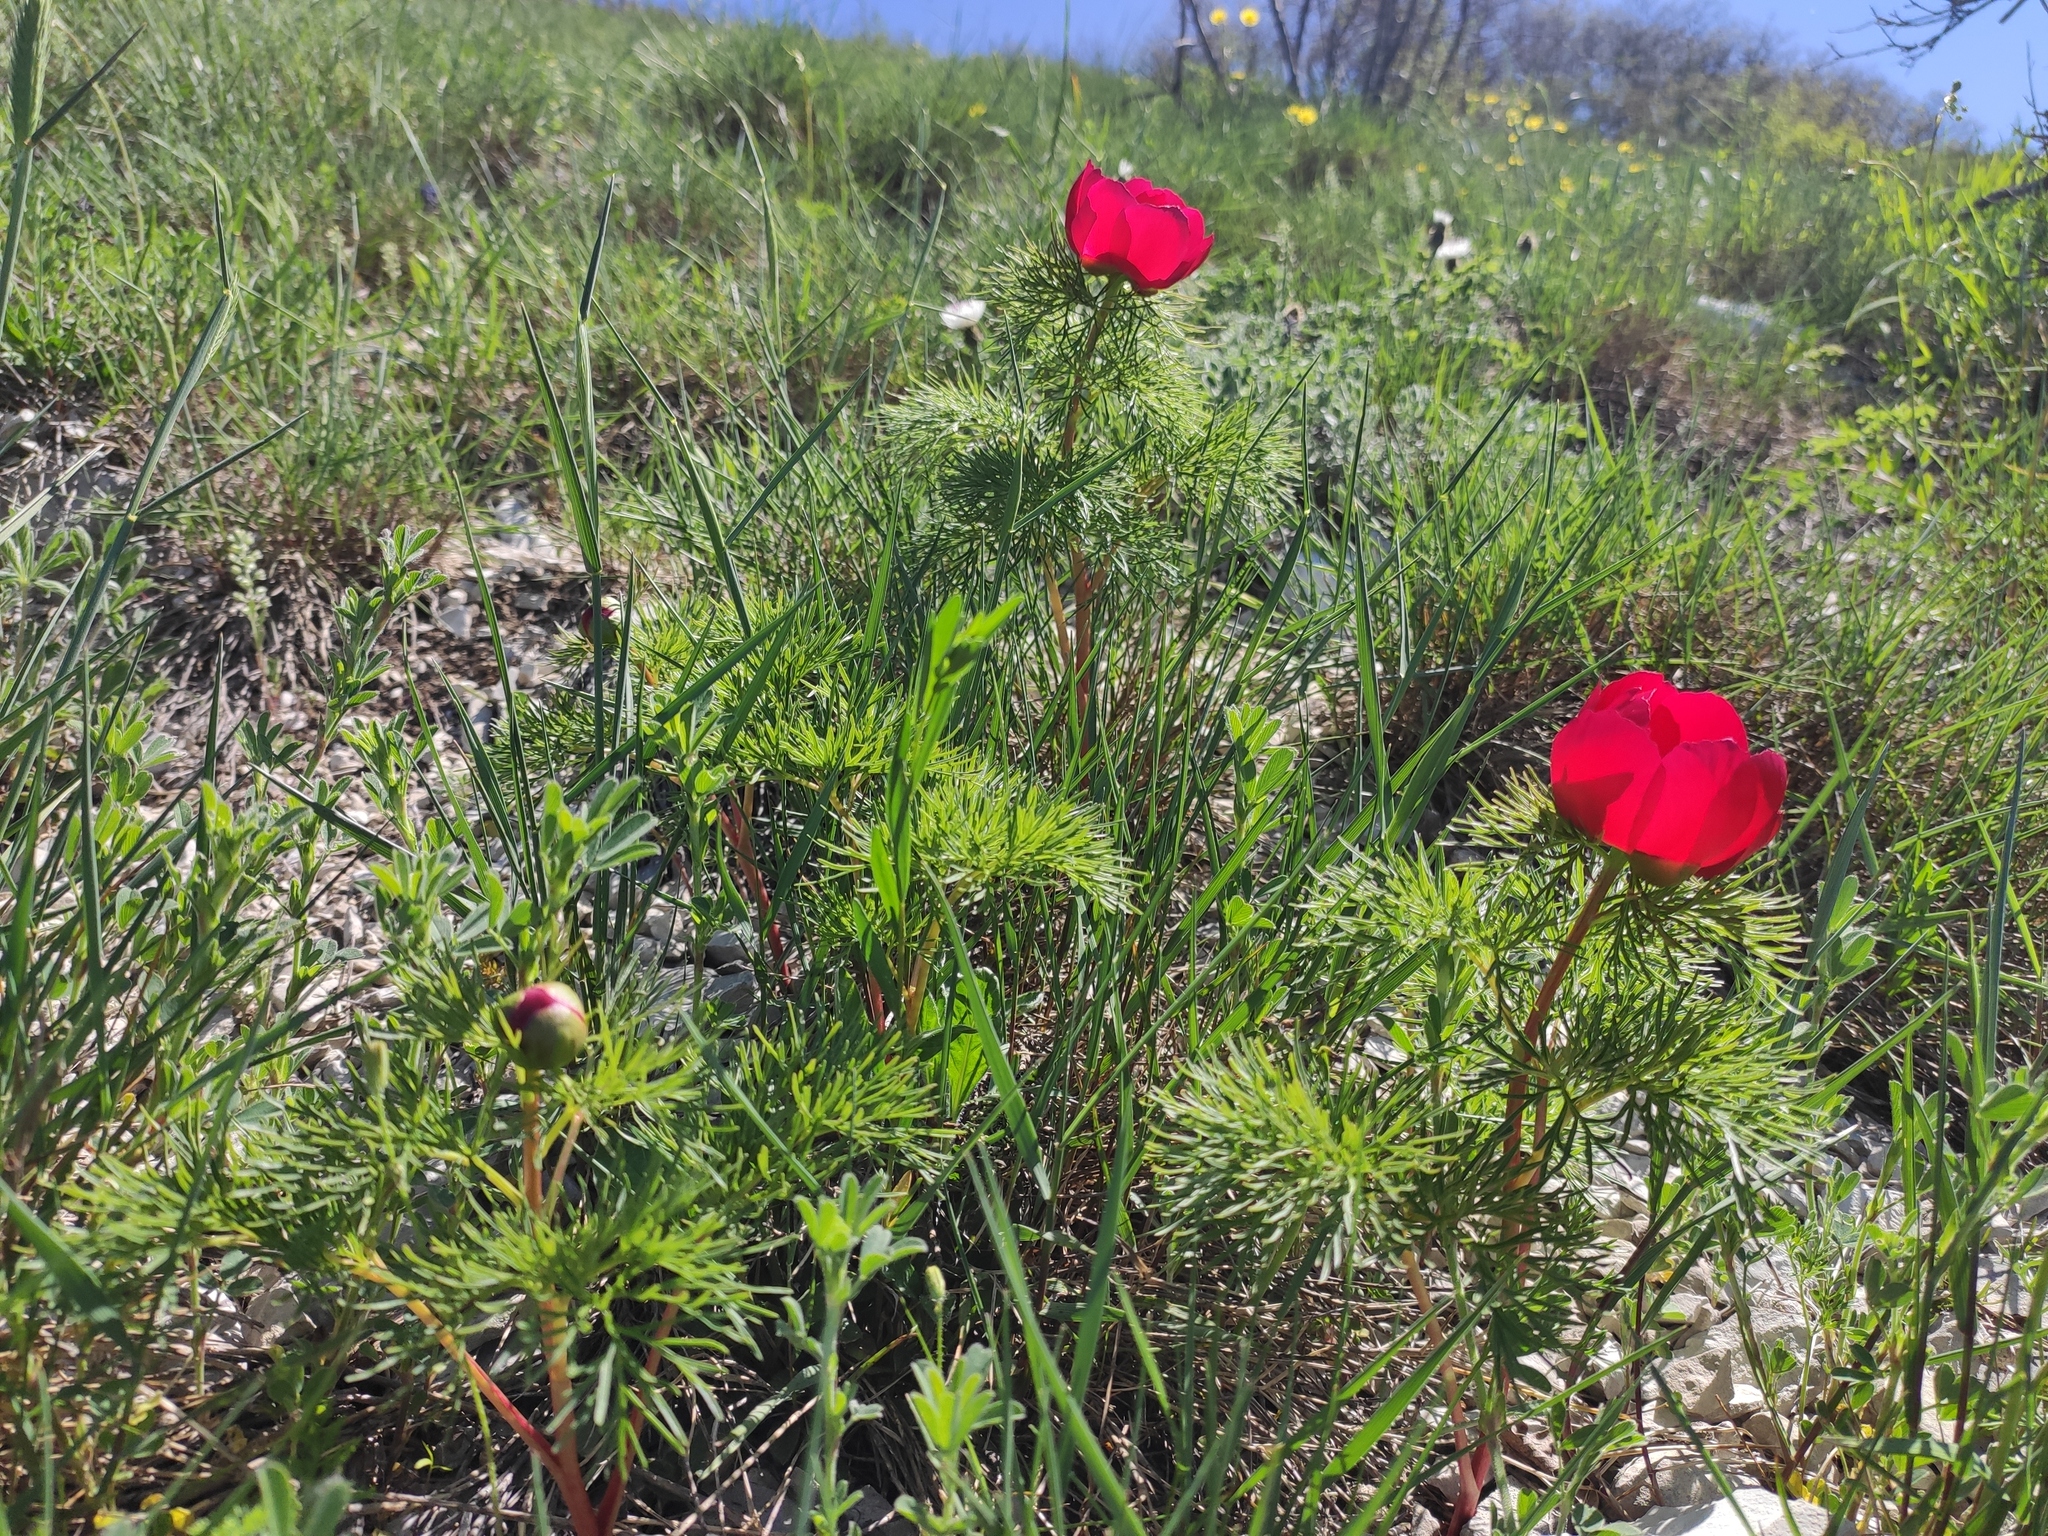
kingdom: Plantae
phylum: Tracheophyta
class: Magnoliopsida
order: Saxifragales
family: Paeoniaceae
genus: Paeonia
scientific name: Paeonia tenuifolia
